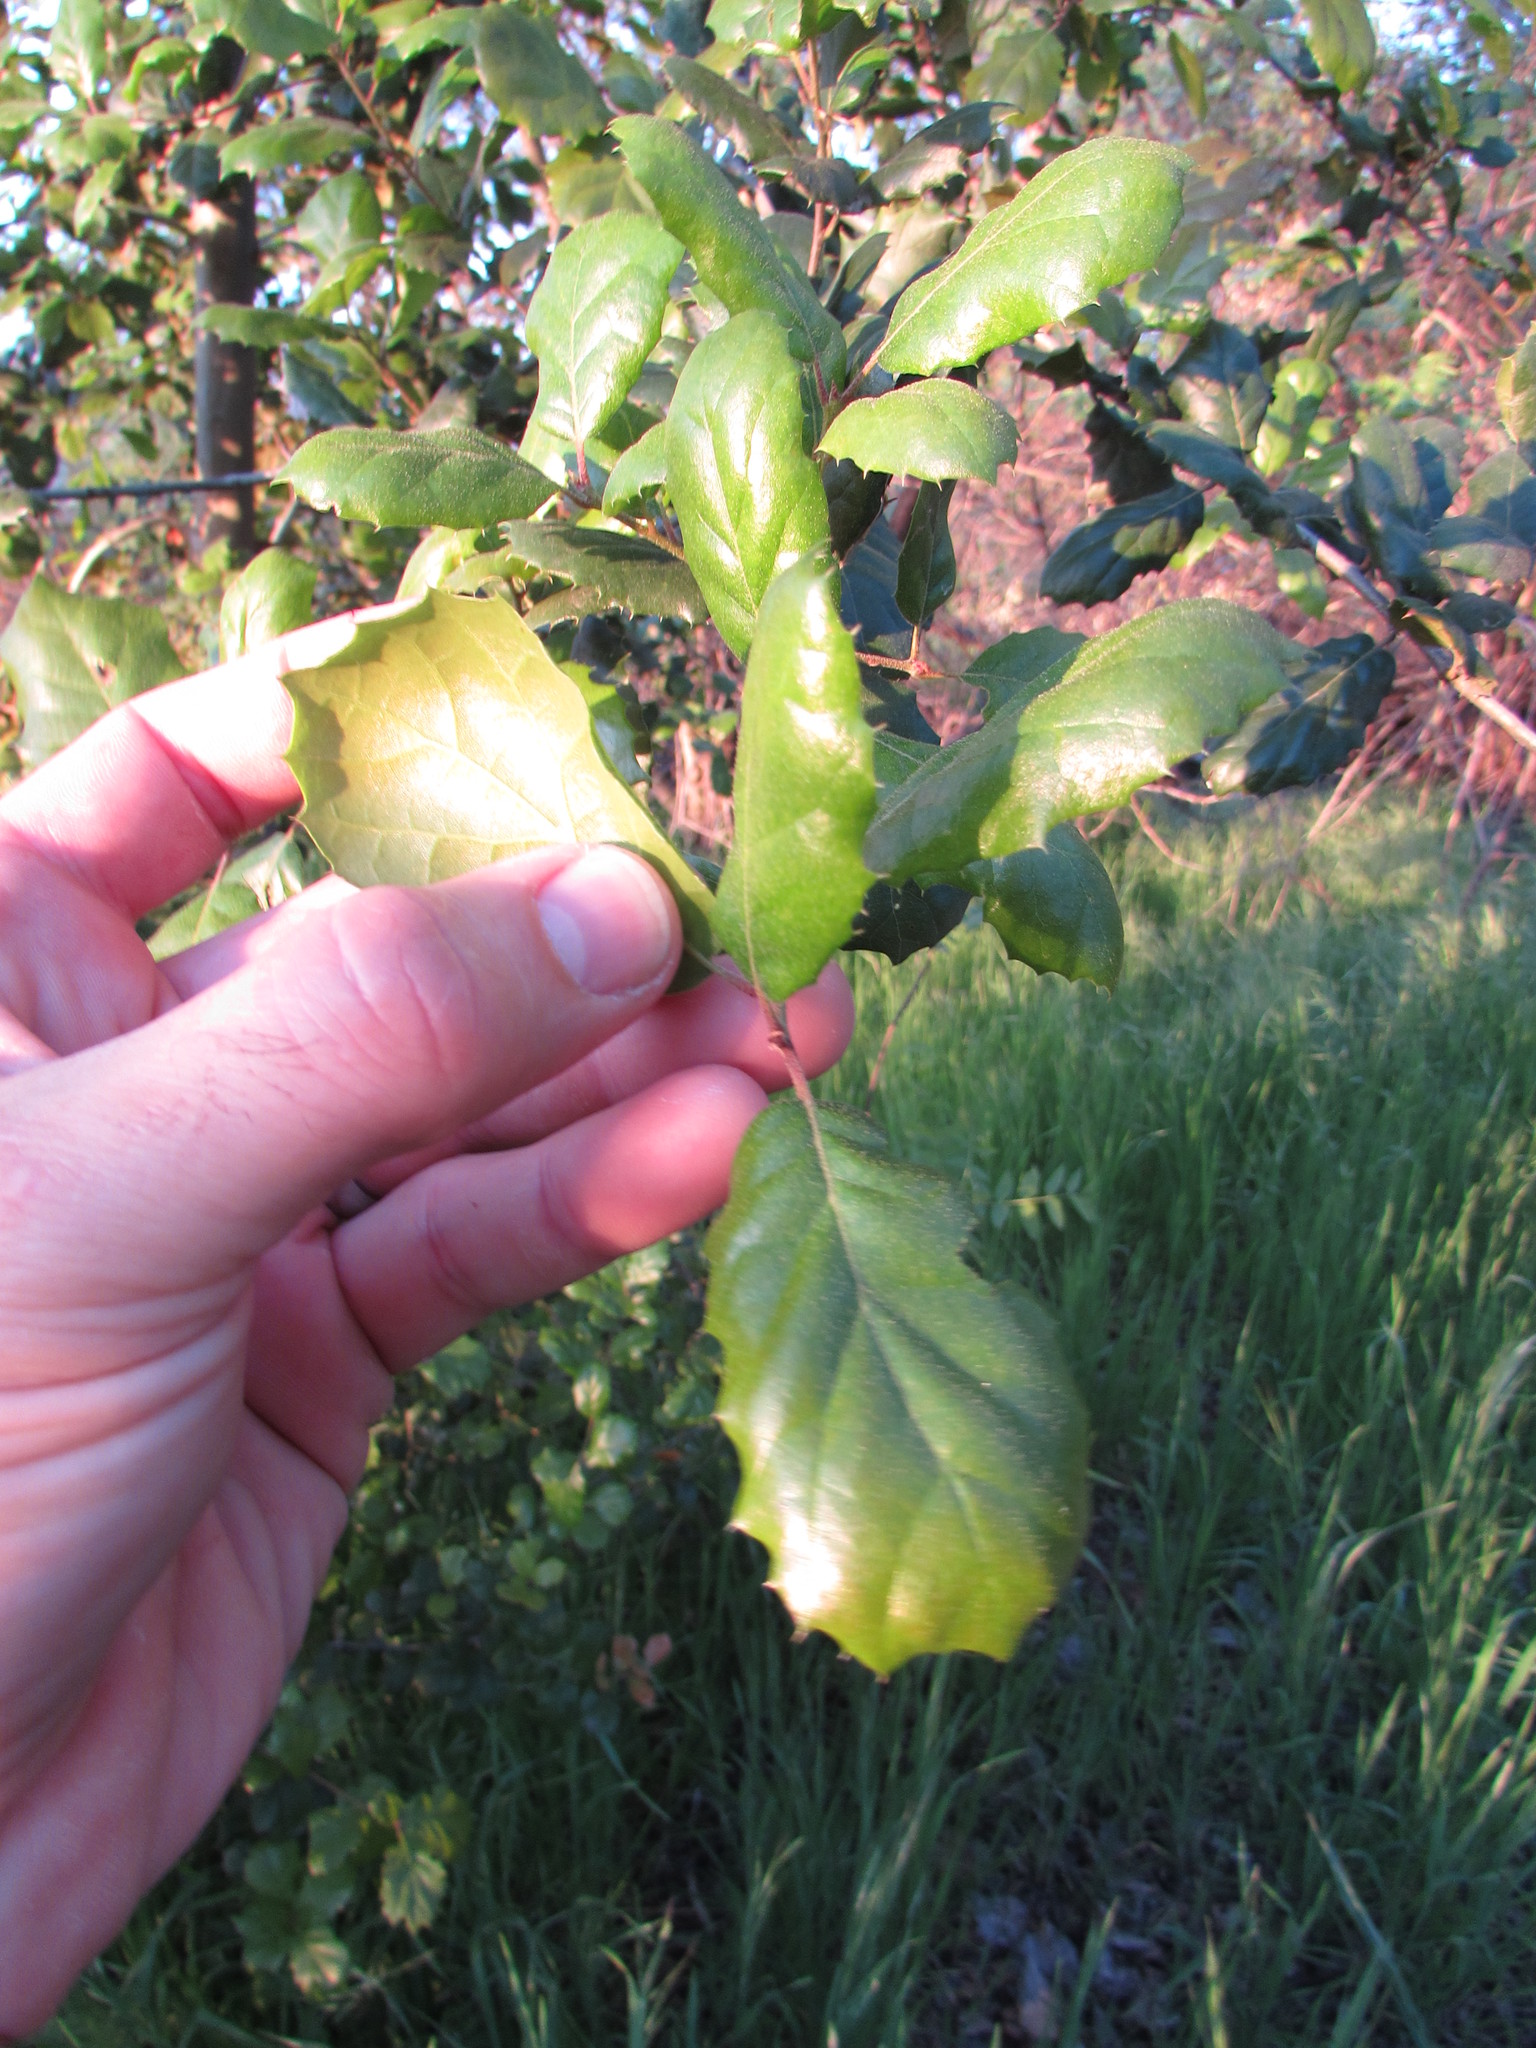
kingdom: Plantae
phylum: Tracheophyta
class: Magnoliopsida
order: Fagales
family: Fagaceae
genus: Quercus
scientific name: Quercus agrifolia
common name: California live oak
